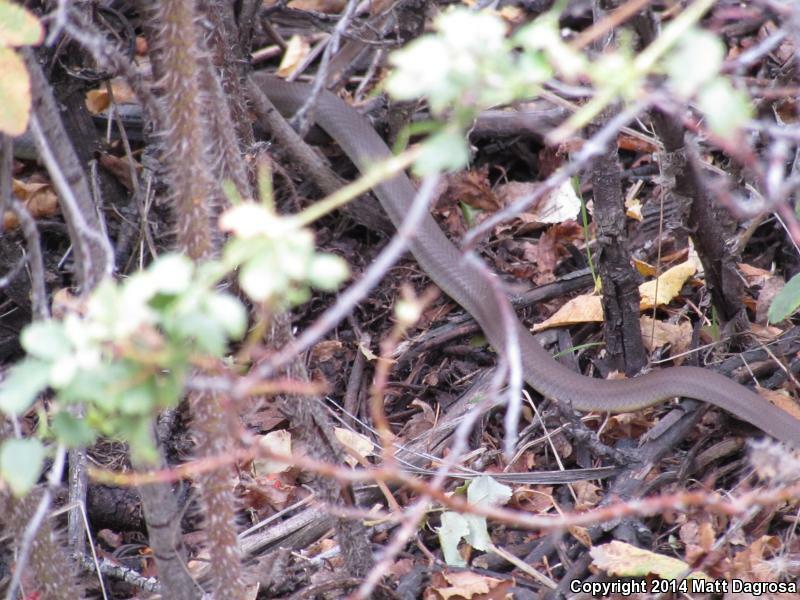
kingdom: Animalia
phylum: Chordata
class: Squamata
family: Colubridae
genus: Coluber
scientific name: Coluber constrictor
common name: Eastern racer
